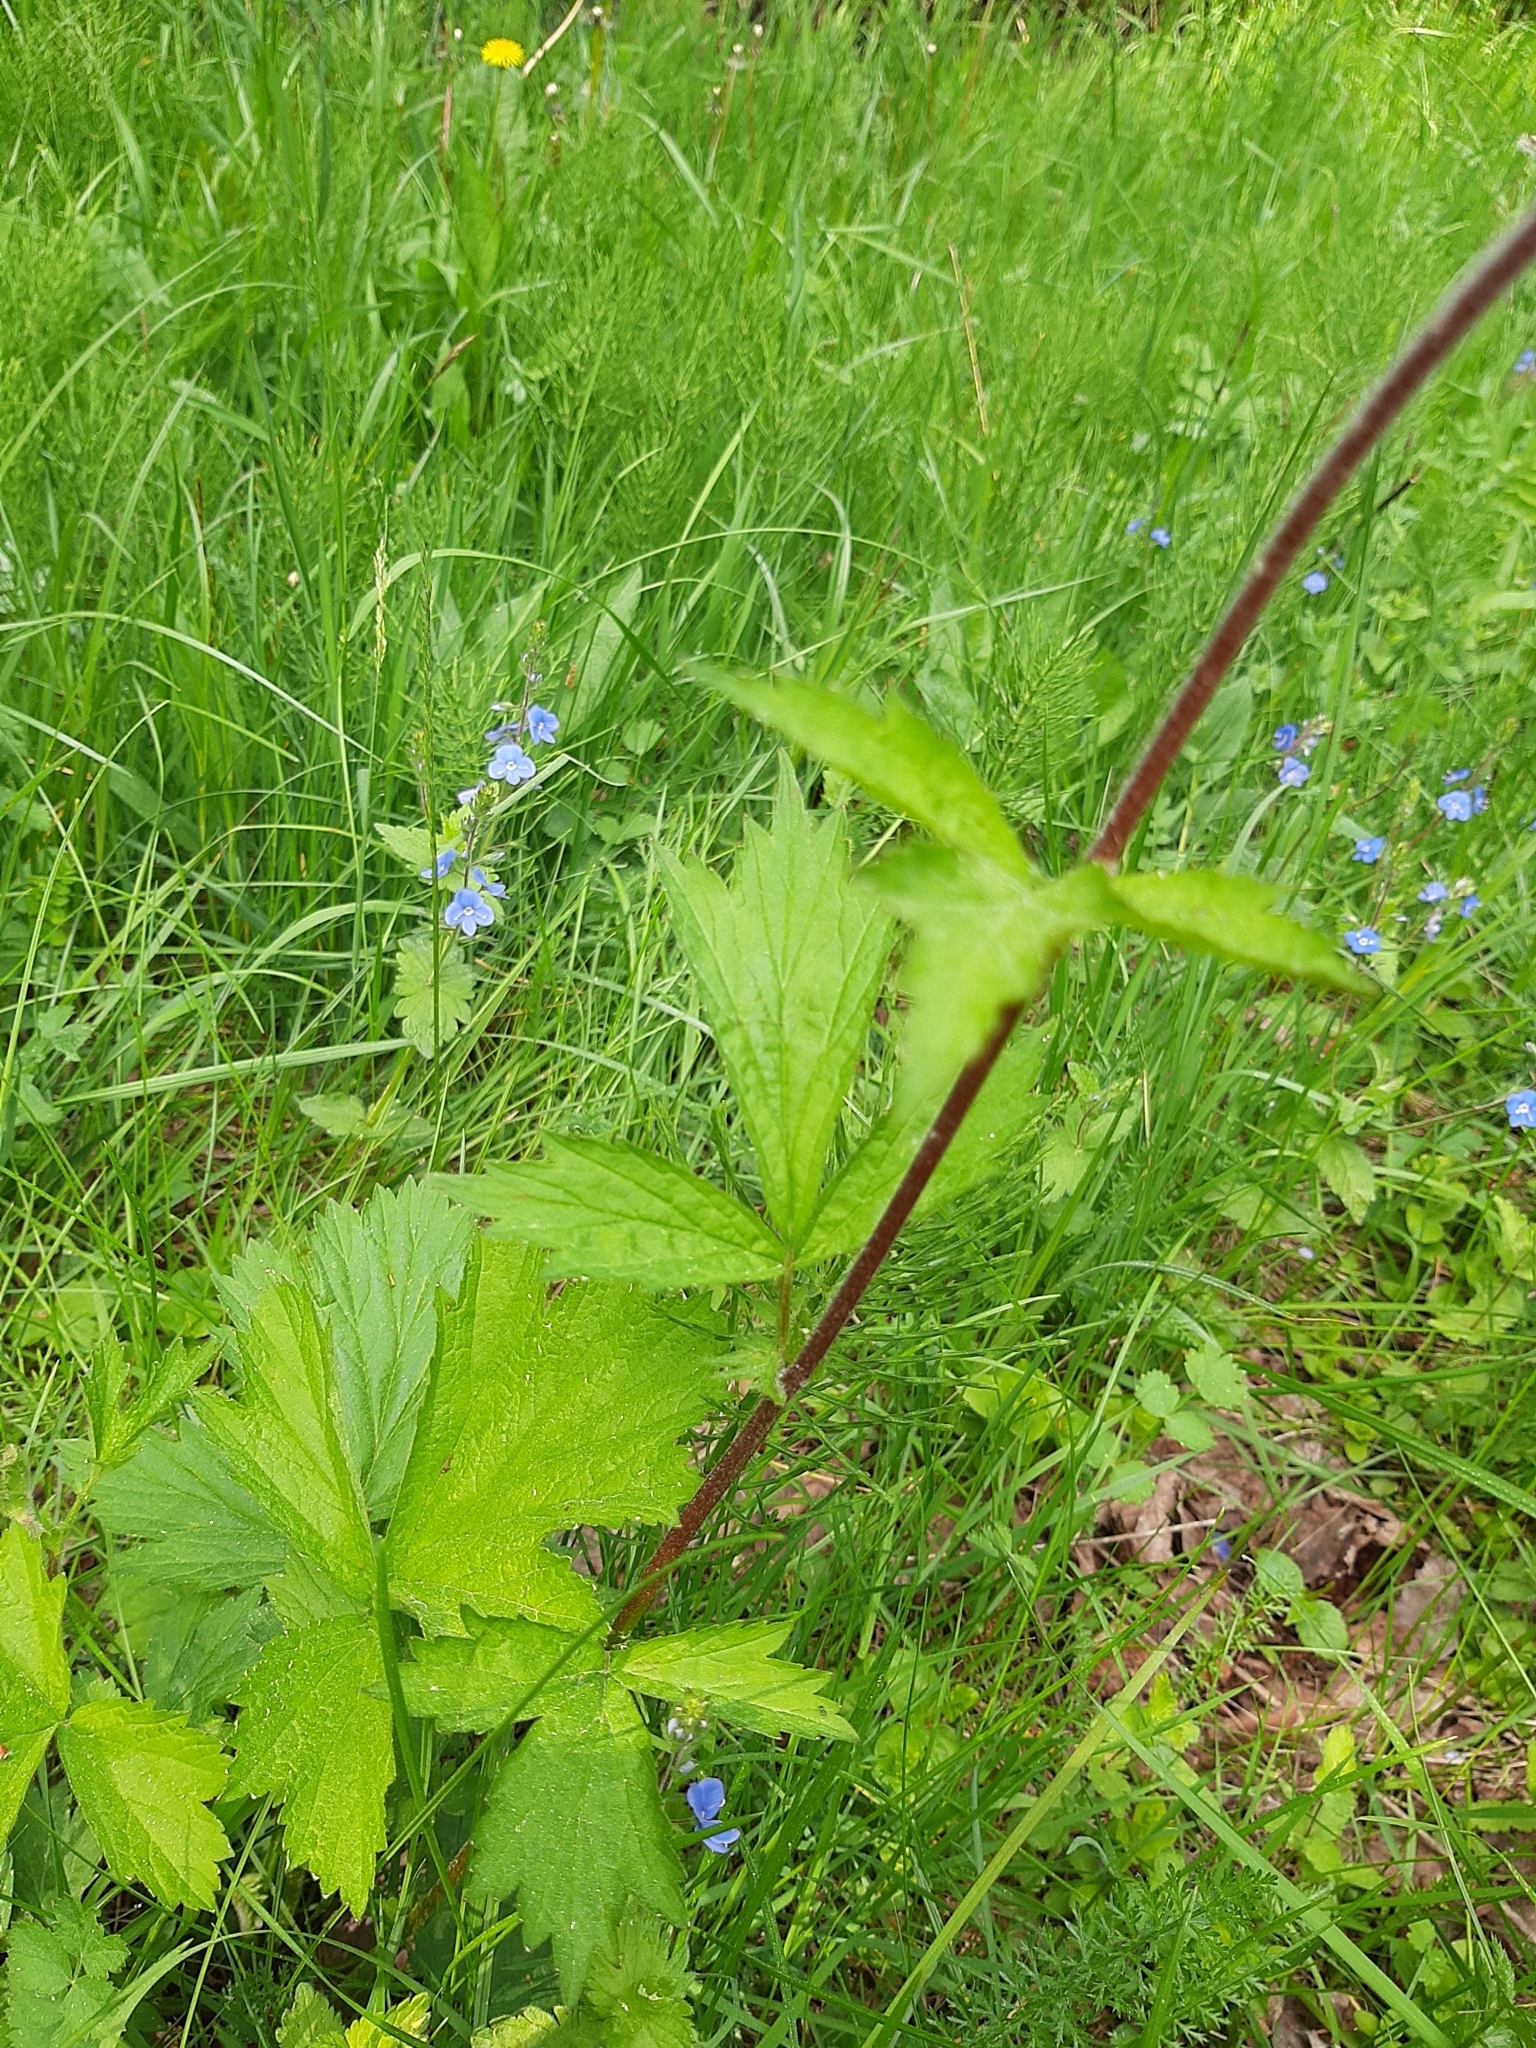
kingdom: Plantae
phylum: Tracheophyta
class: Magnoliopsida
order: Rosales
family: Rosaceae
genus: Geum
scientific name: Geum rivale
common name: Water avens
